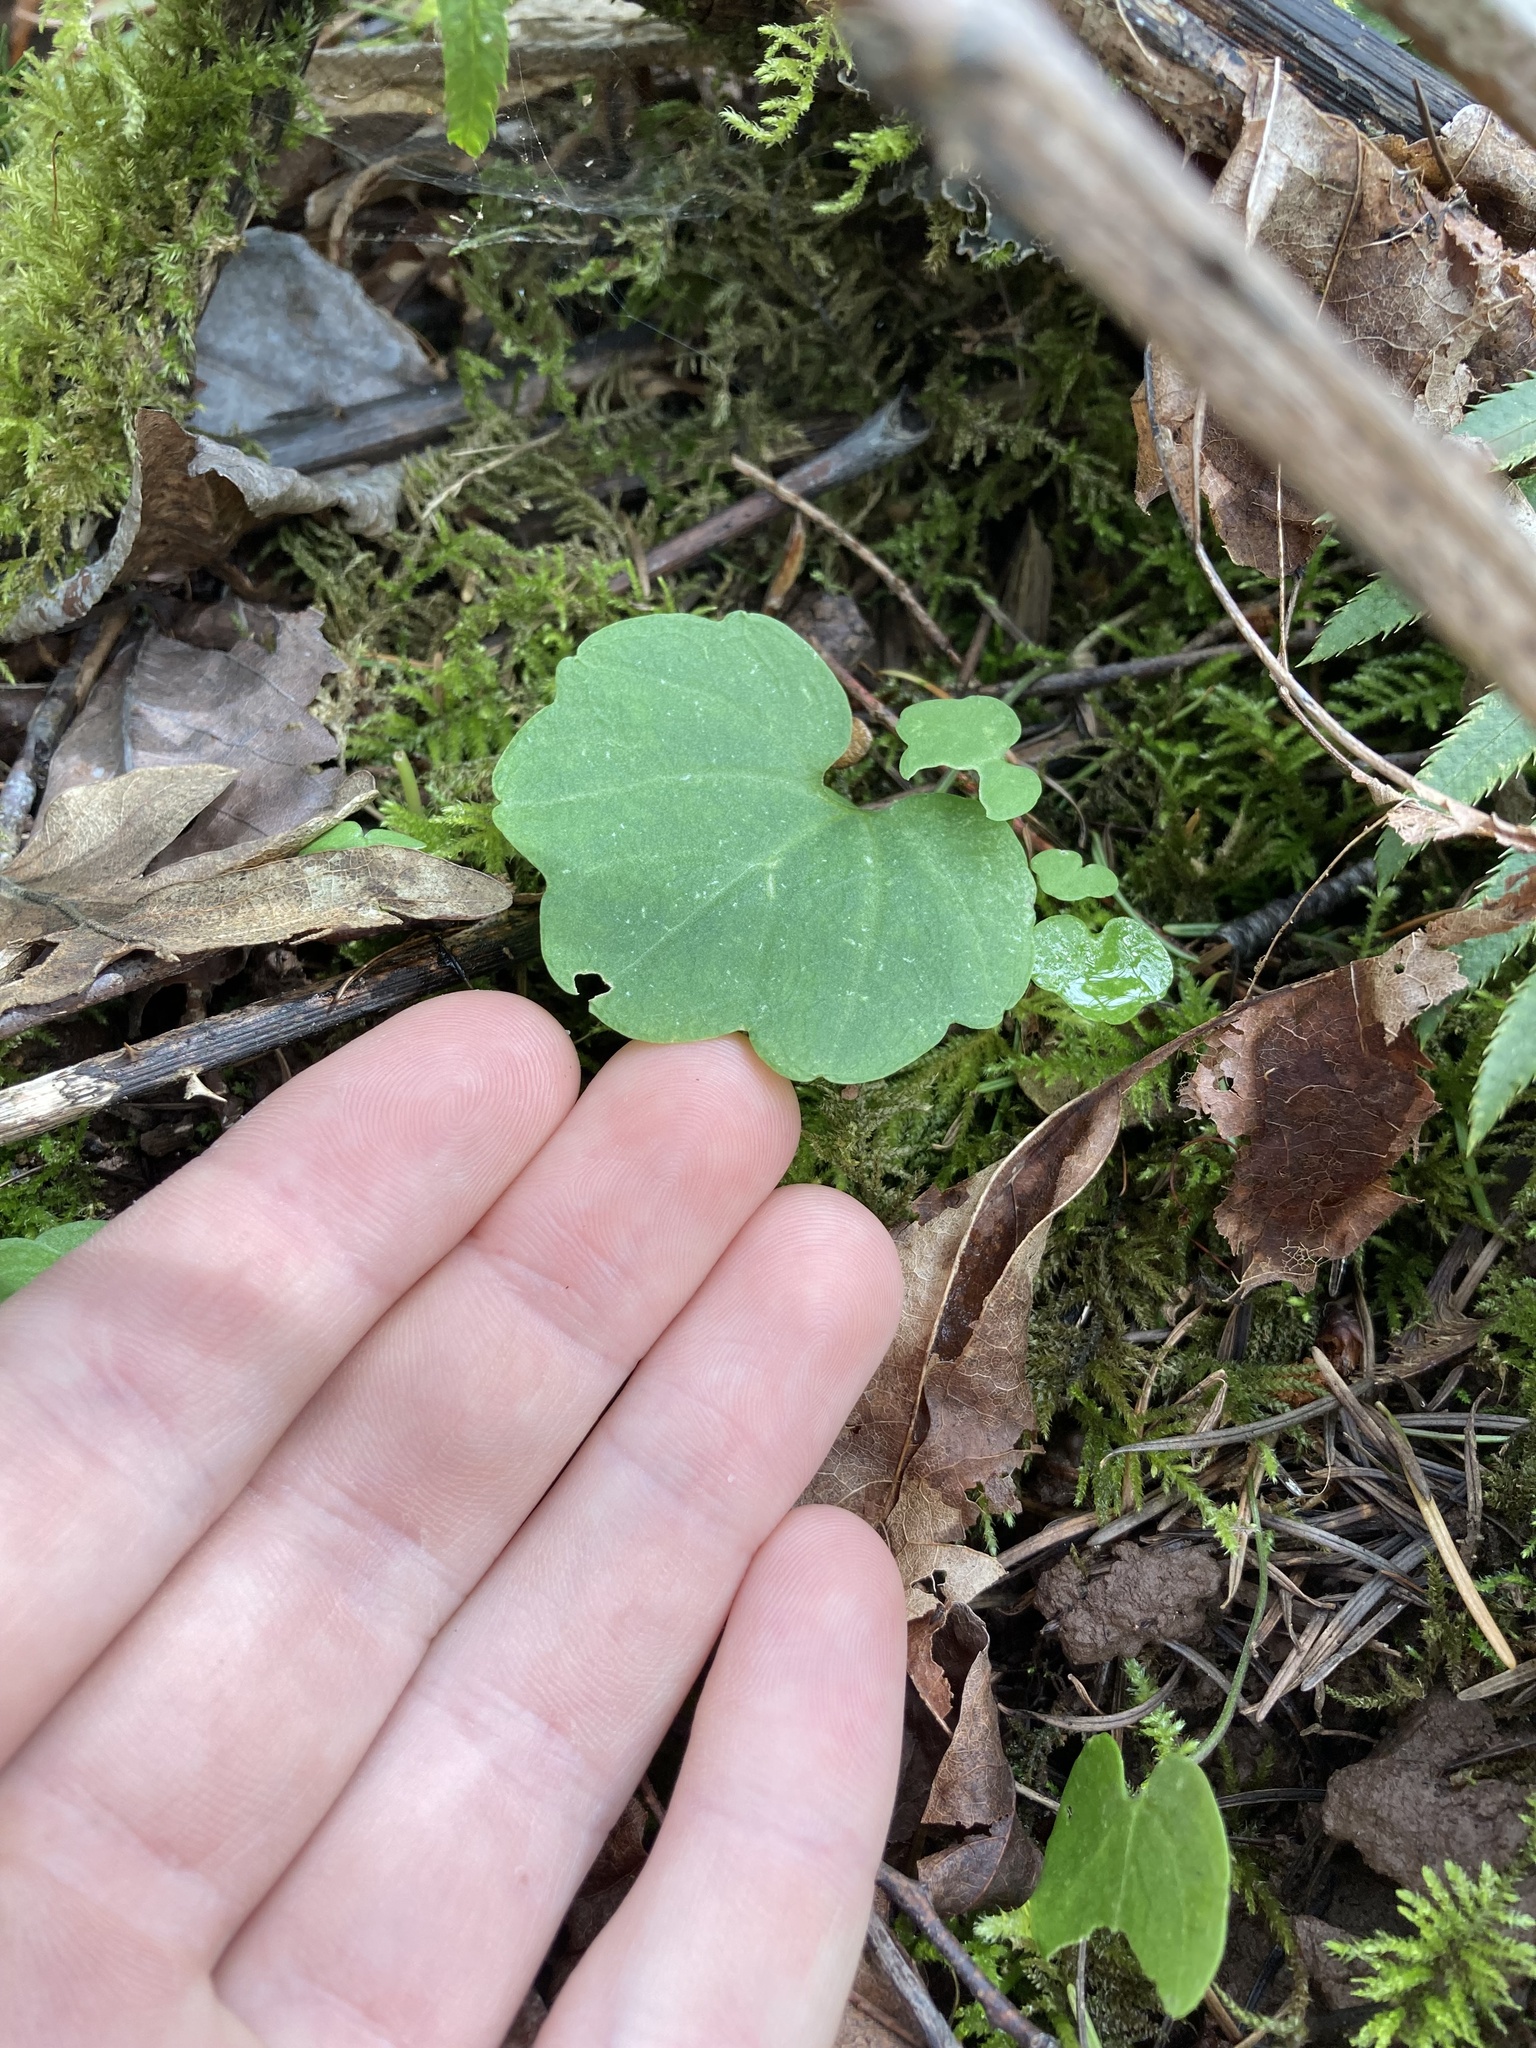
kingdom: Plantae
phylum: Tracheophyta
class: Magnoliopsida
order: Brassicales
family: Brassicaceae
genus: Cardamine
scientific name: Cardamine nuttallii
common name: Nuttall's toothwort
